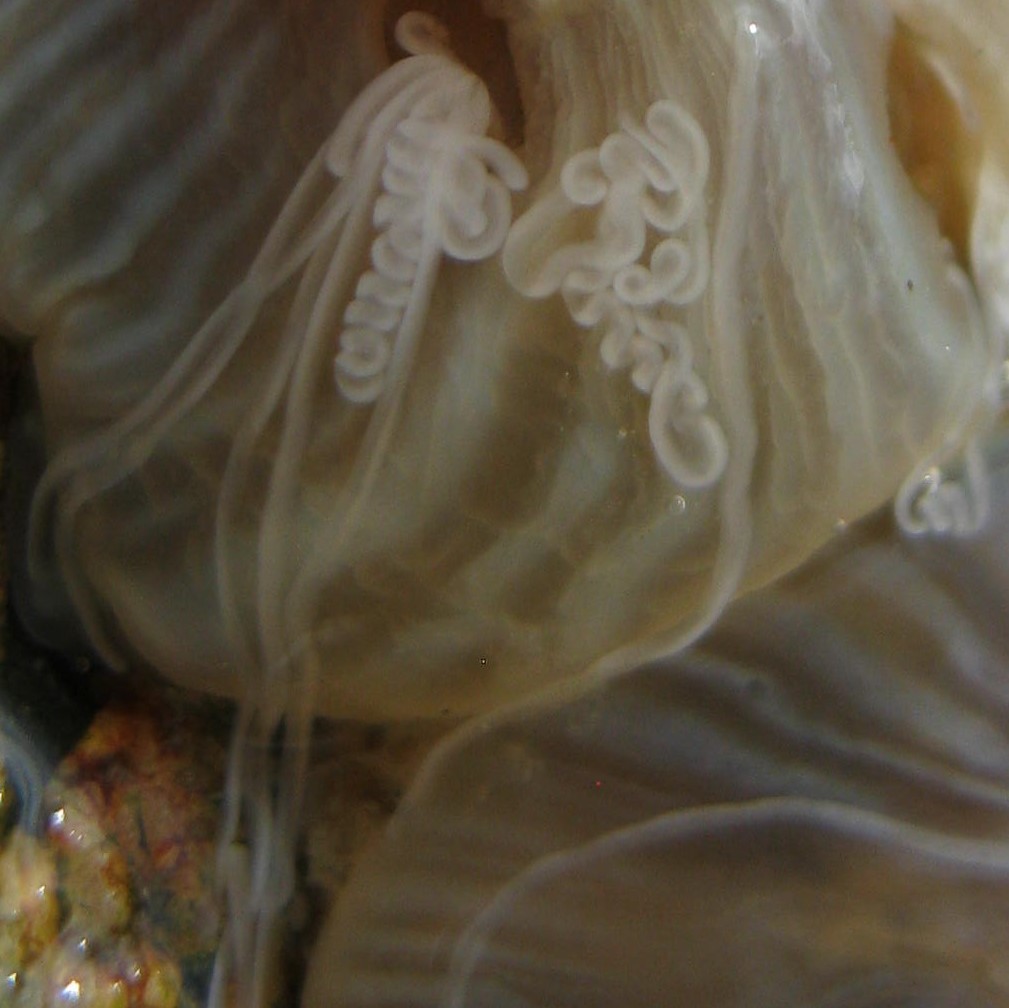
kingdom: Animalia
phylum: Cnidaria
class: Anthozoa
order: Actiniaria
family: Diadumenidae
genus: Diadumene
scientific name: Diadumene neozelanica
